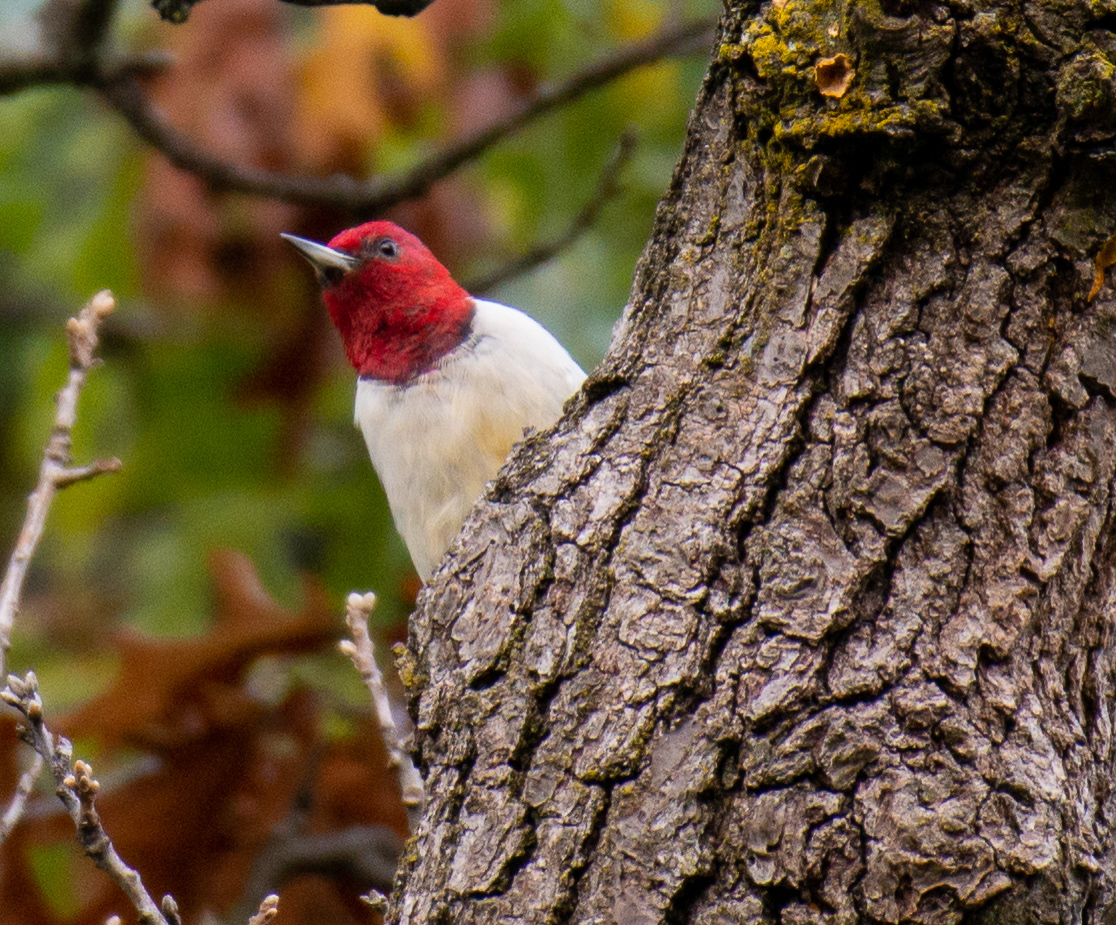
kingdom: Animalia
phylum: Chordata
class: Aves
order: Piciformes
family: Picidae
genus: Melanerpes
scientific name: Melanerpes erythrocephalus
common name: Red-headed woodpecker
